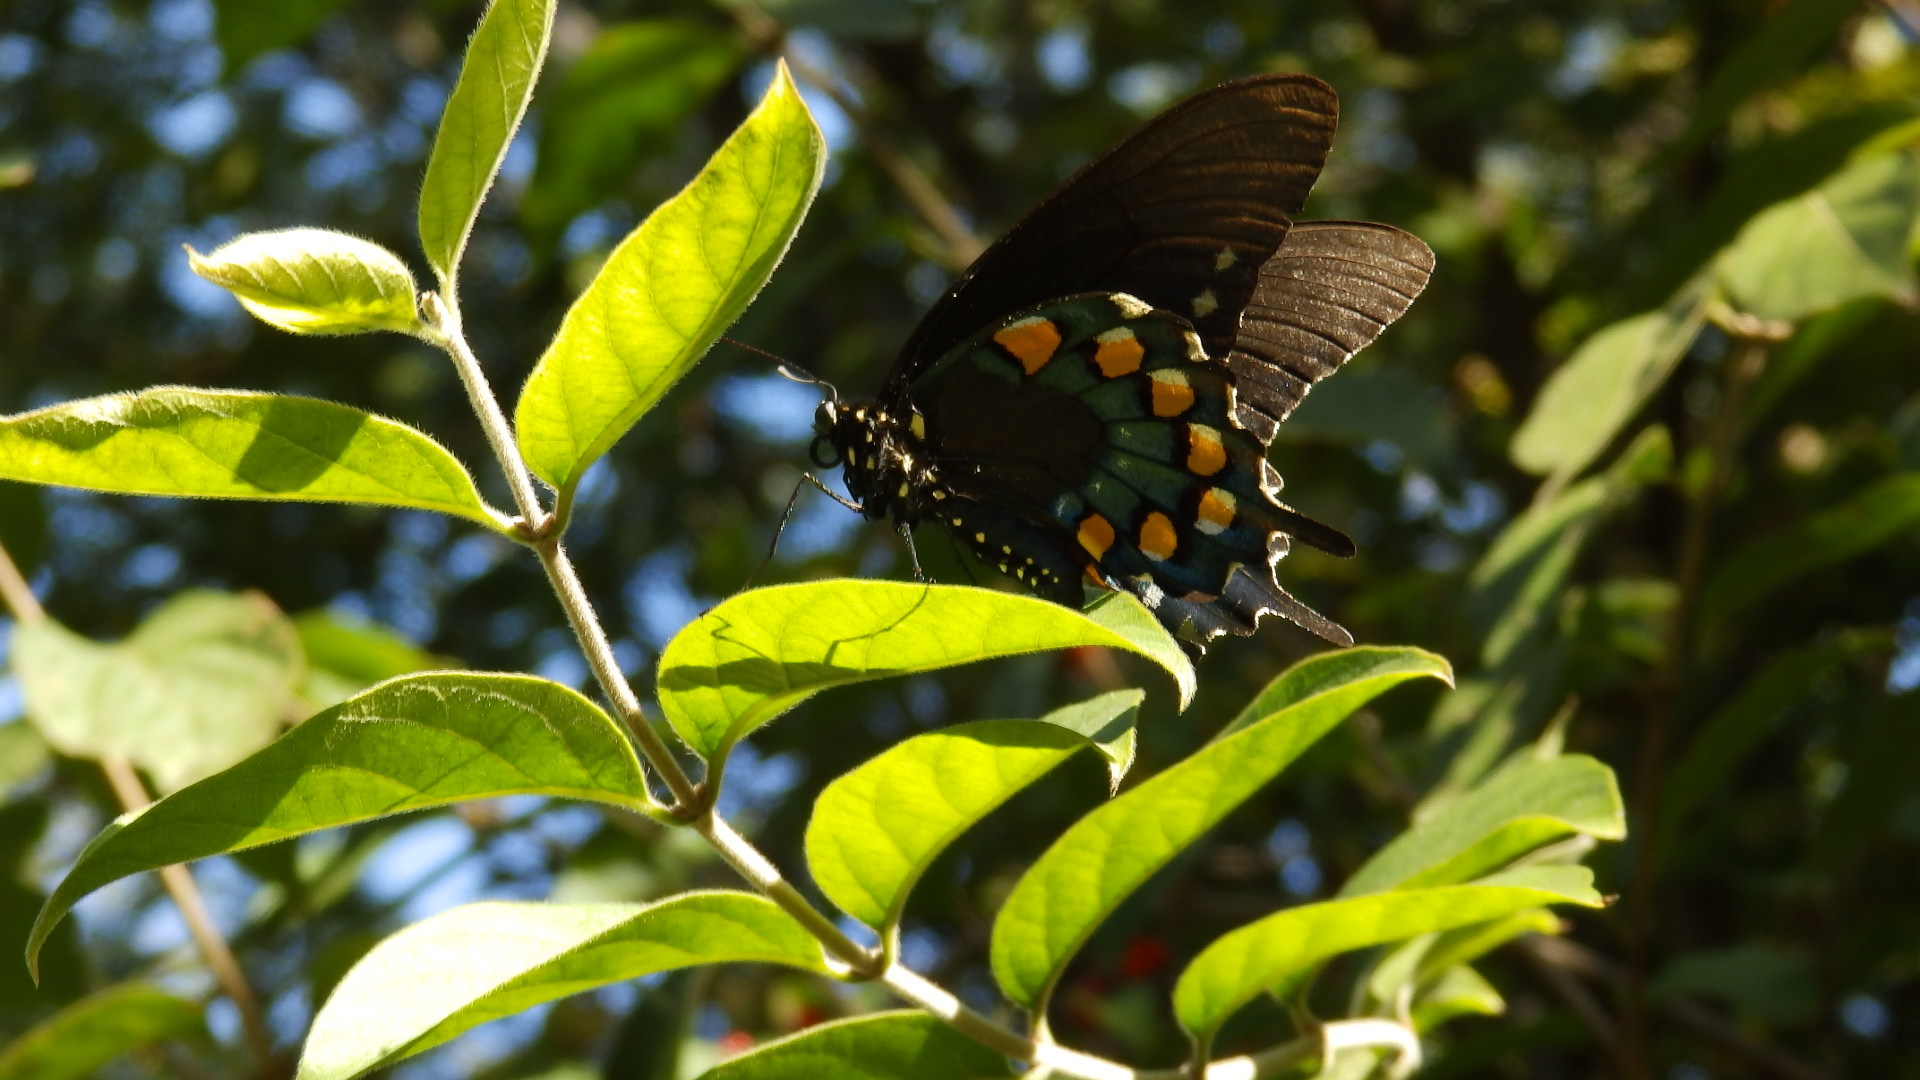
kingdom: Animalia
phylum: Arthropoda
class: Insecta
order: Lepidoptera
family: Papilionidae
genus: Battus
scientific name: Battus philenor
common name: Pipevine swallowtail
